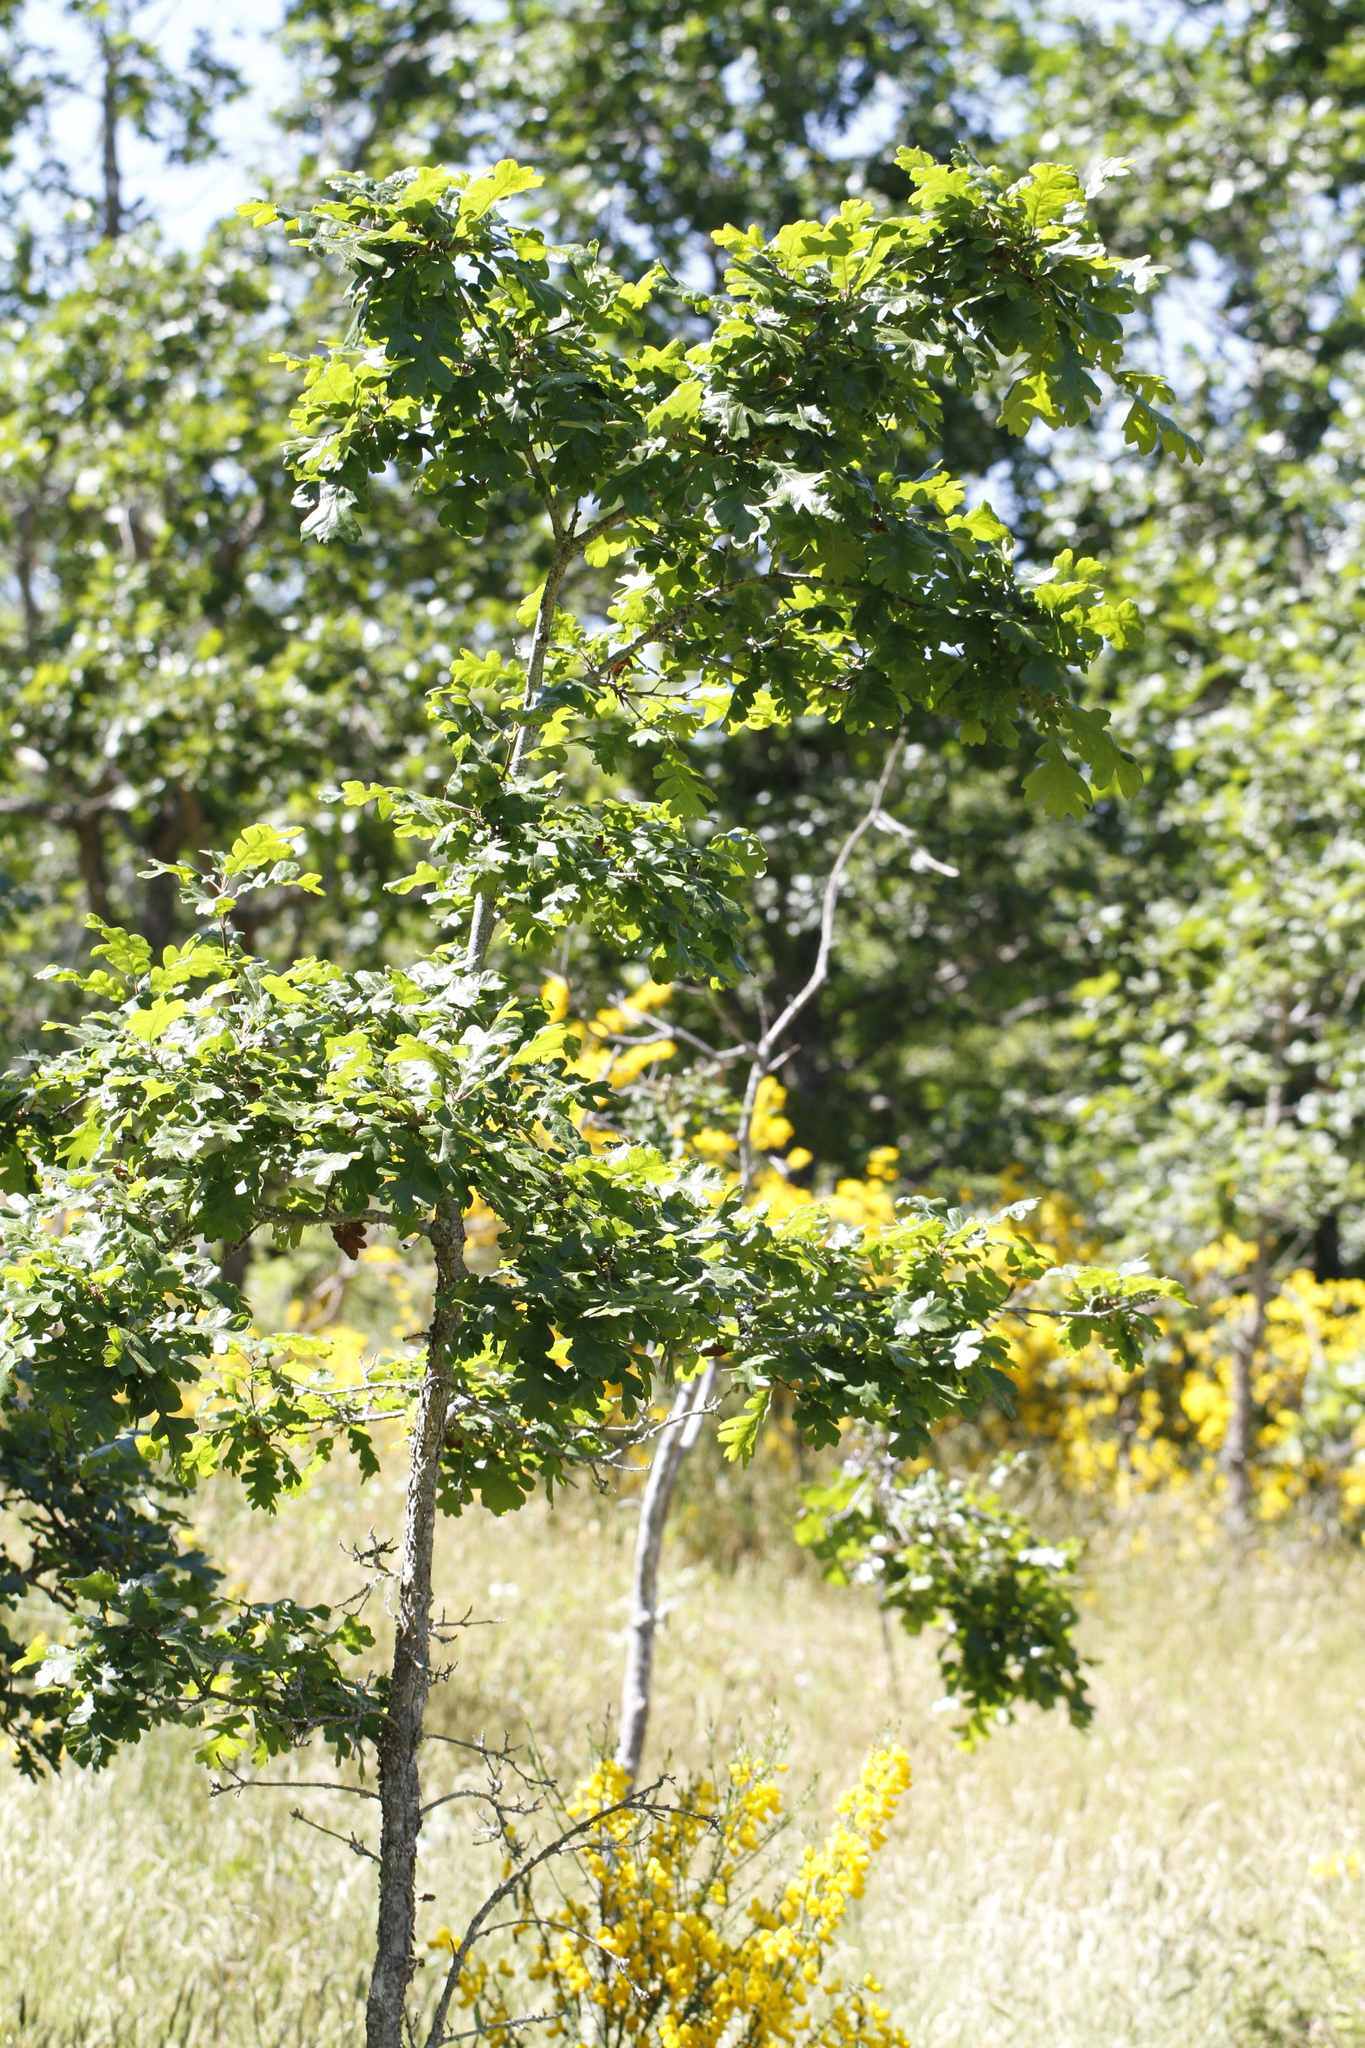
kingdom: Plantae
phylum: Tracheophyta
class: Magnoliopsida
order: Fagales
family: Fagaceae
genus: Quercus
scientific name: Quercus garryana
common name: Garry oak
